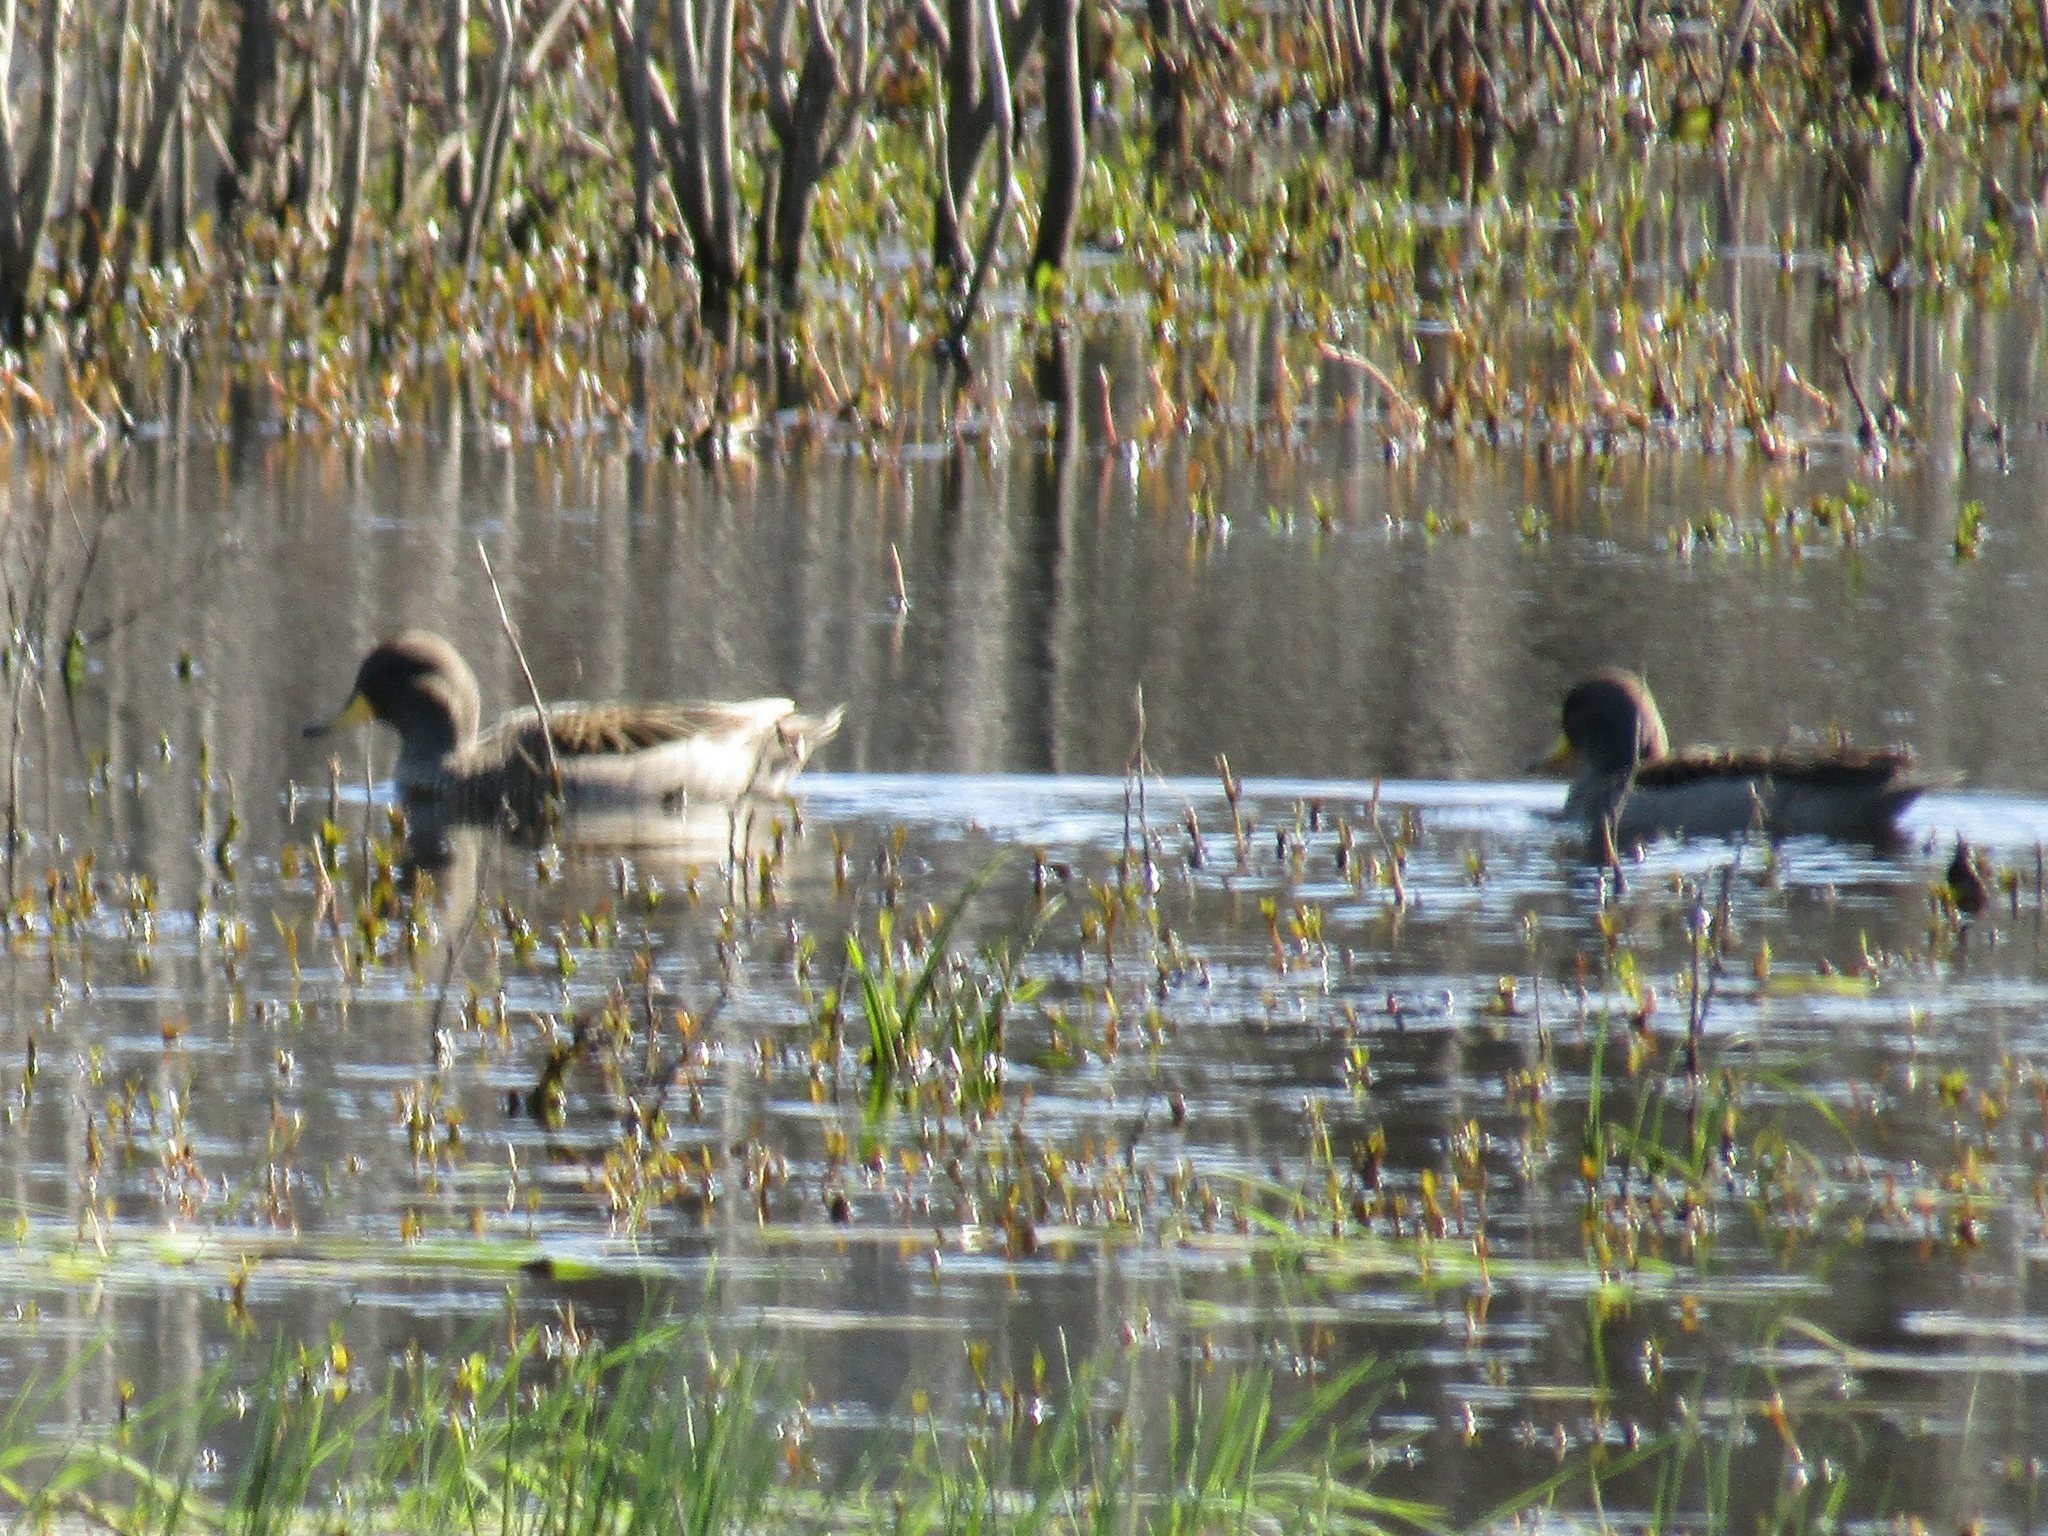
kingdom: Animalia
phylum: Chordata
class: Aves
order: Anseriformes
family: Anatidae
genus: Anas
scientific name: Anas flavirostris
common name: Yellow-billed teal
